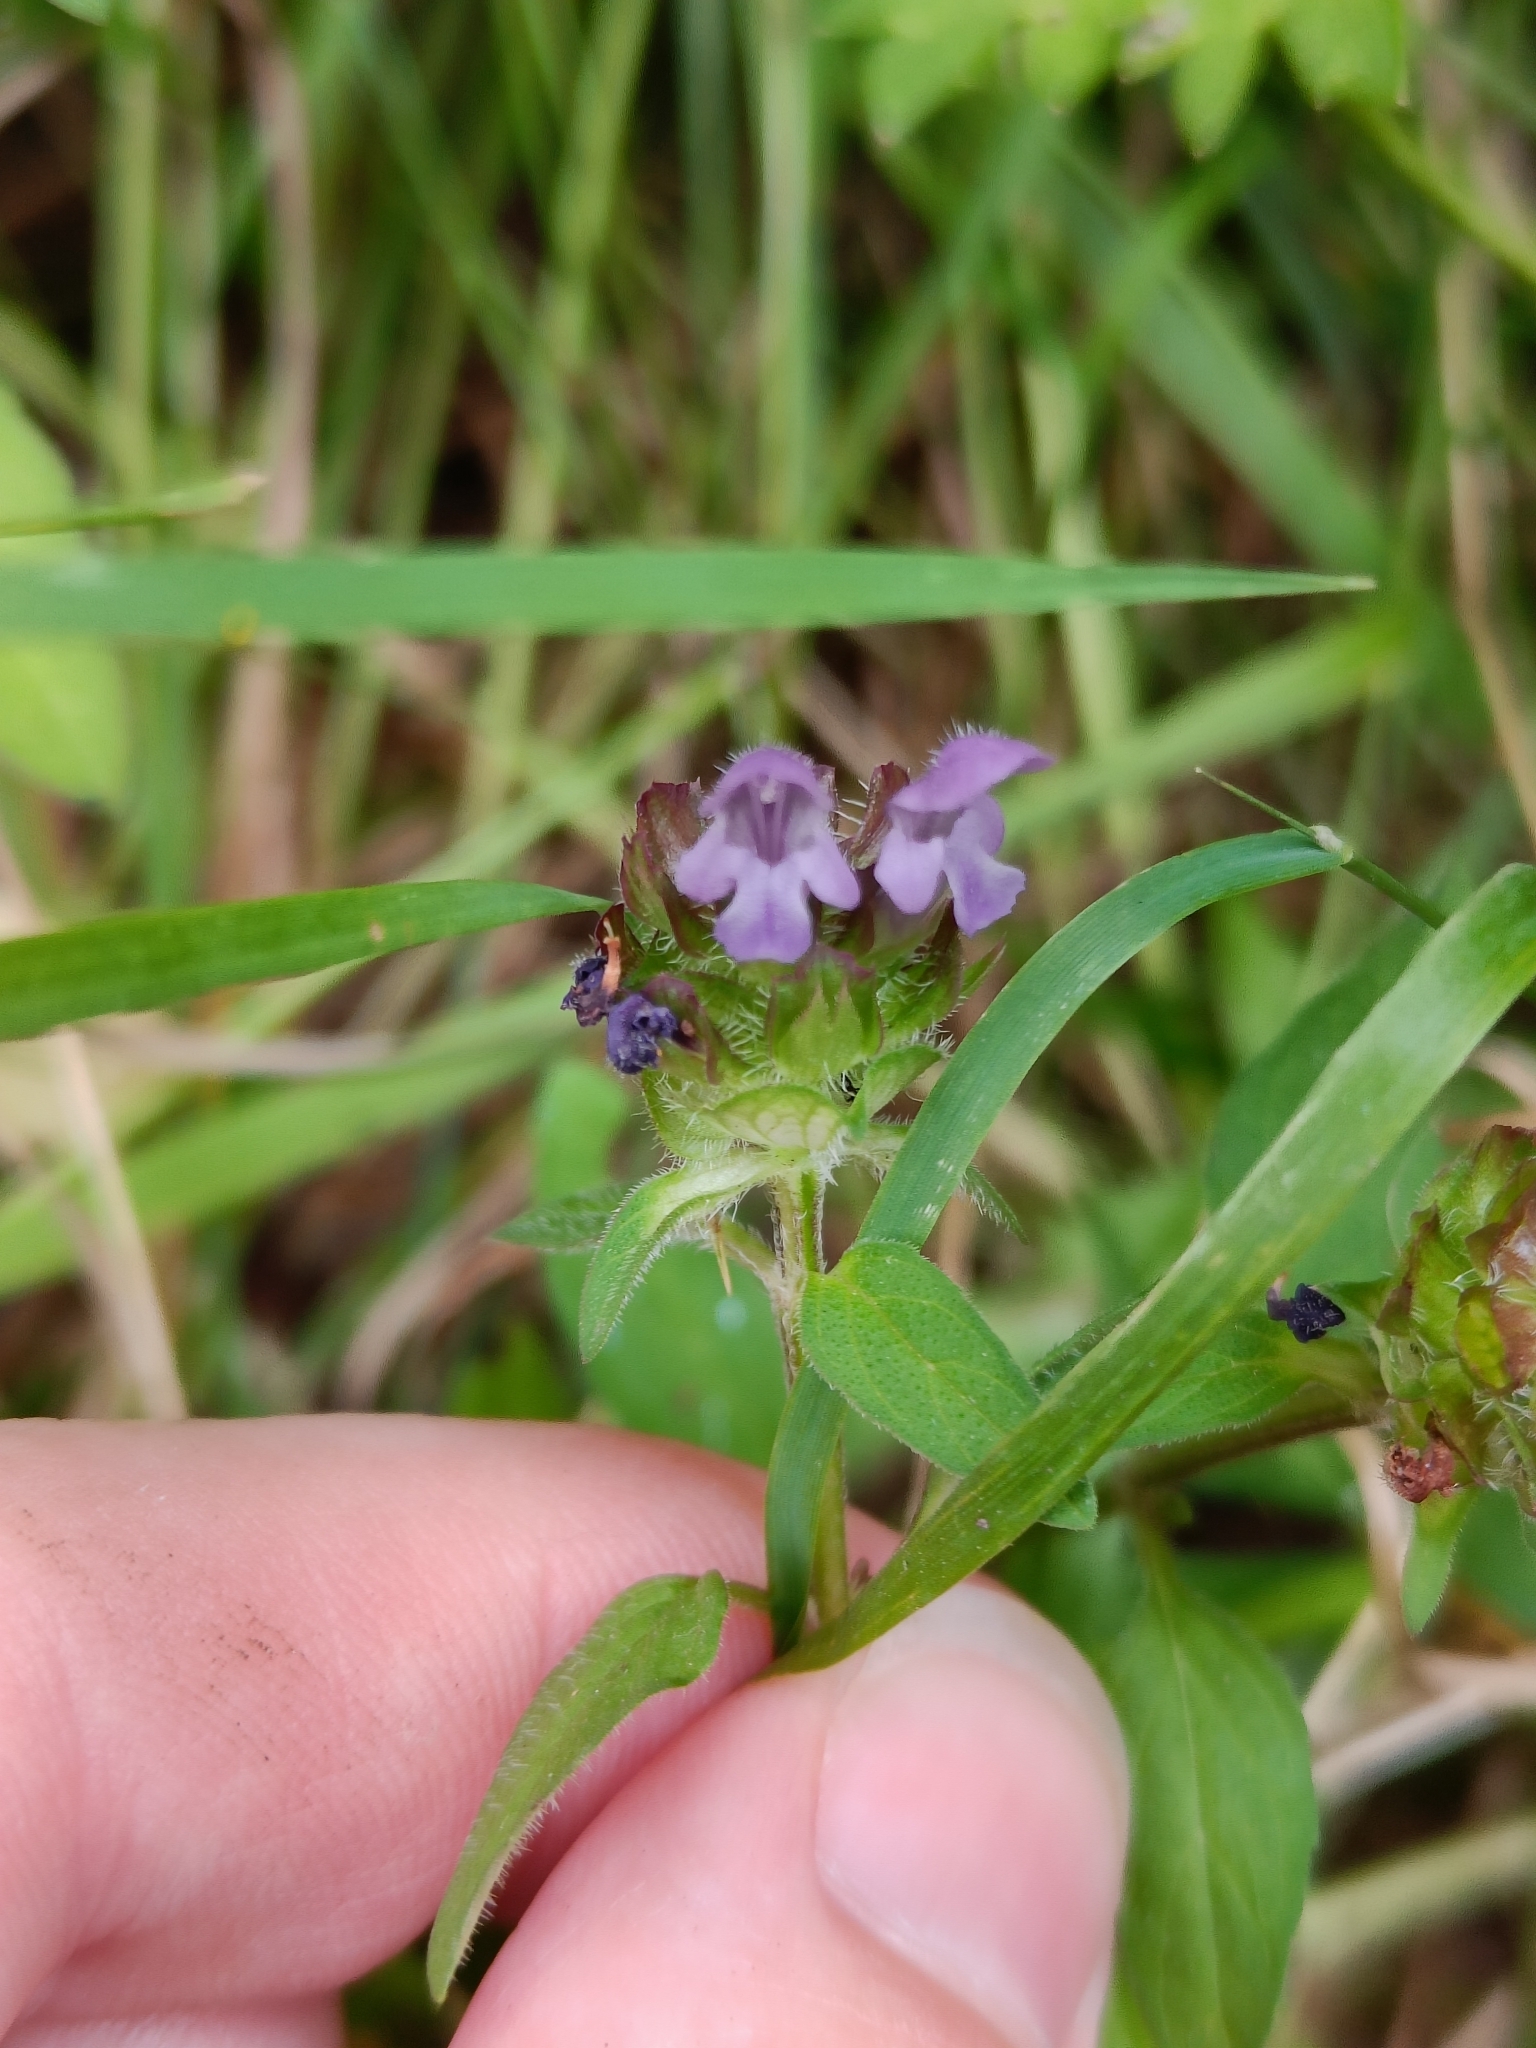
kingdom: Plantae
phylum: Tracheophyta
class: Magnoliopsida
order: Lamiales
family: Lamiaceae
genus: Prunella
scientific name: Prunella vulgaris
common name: Heal-all
